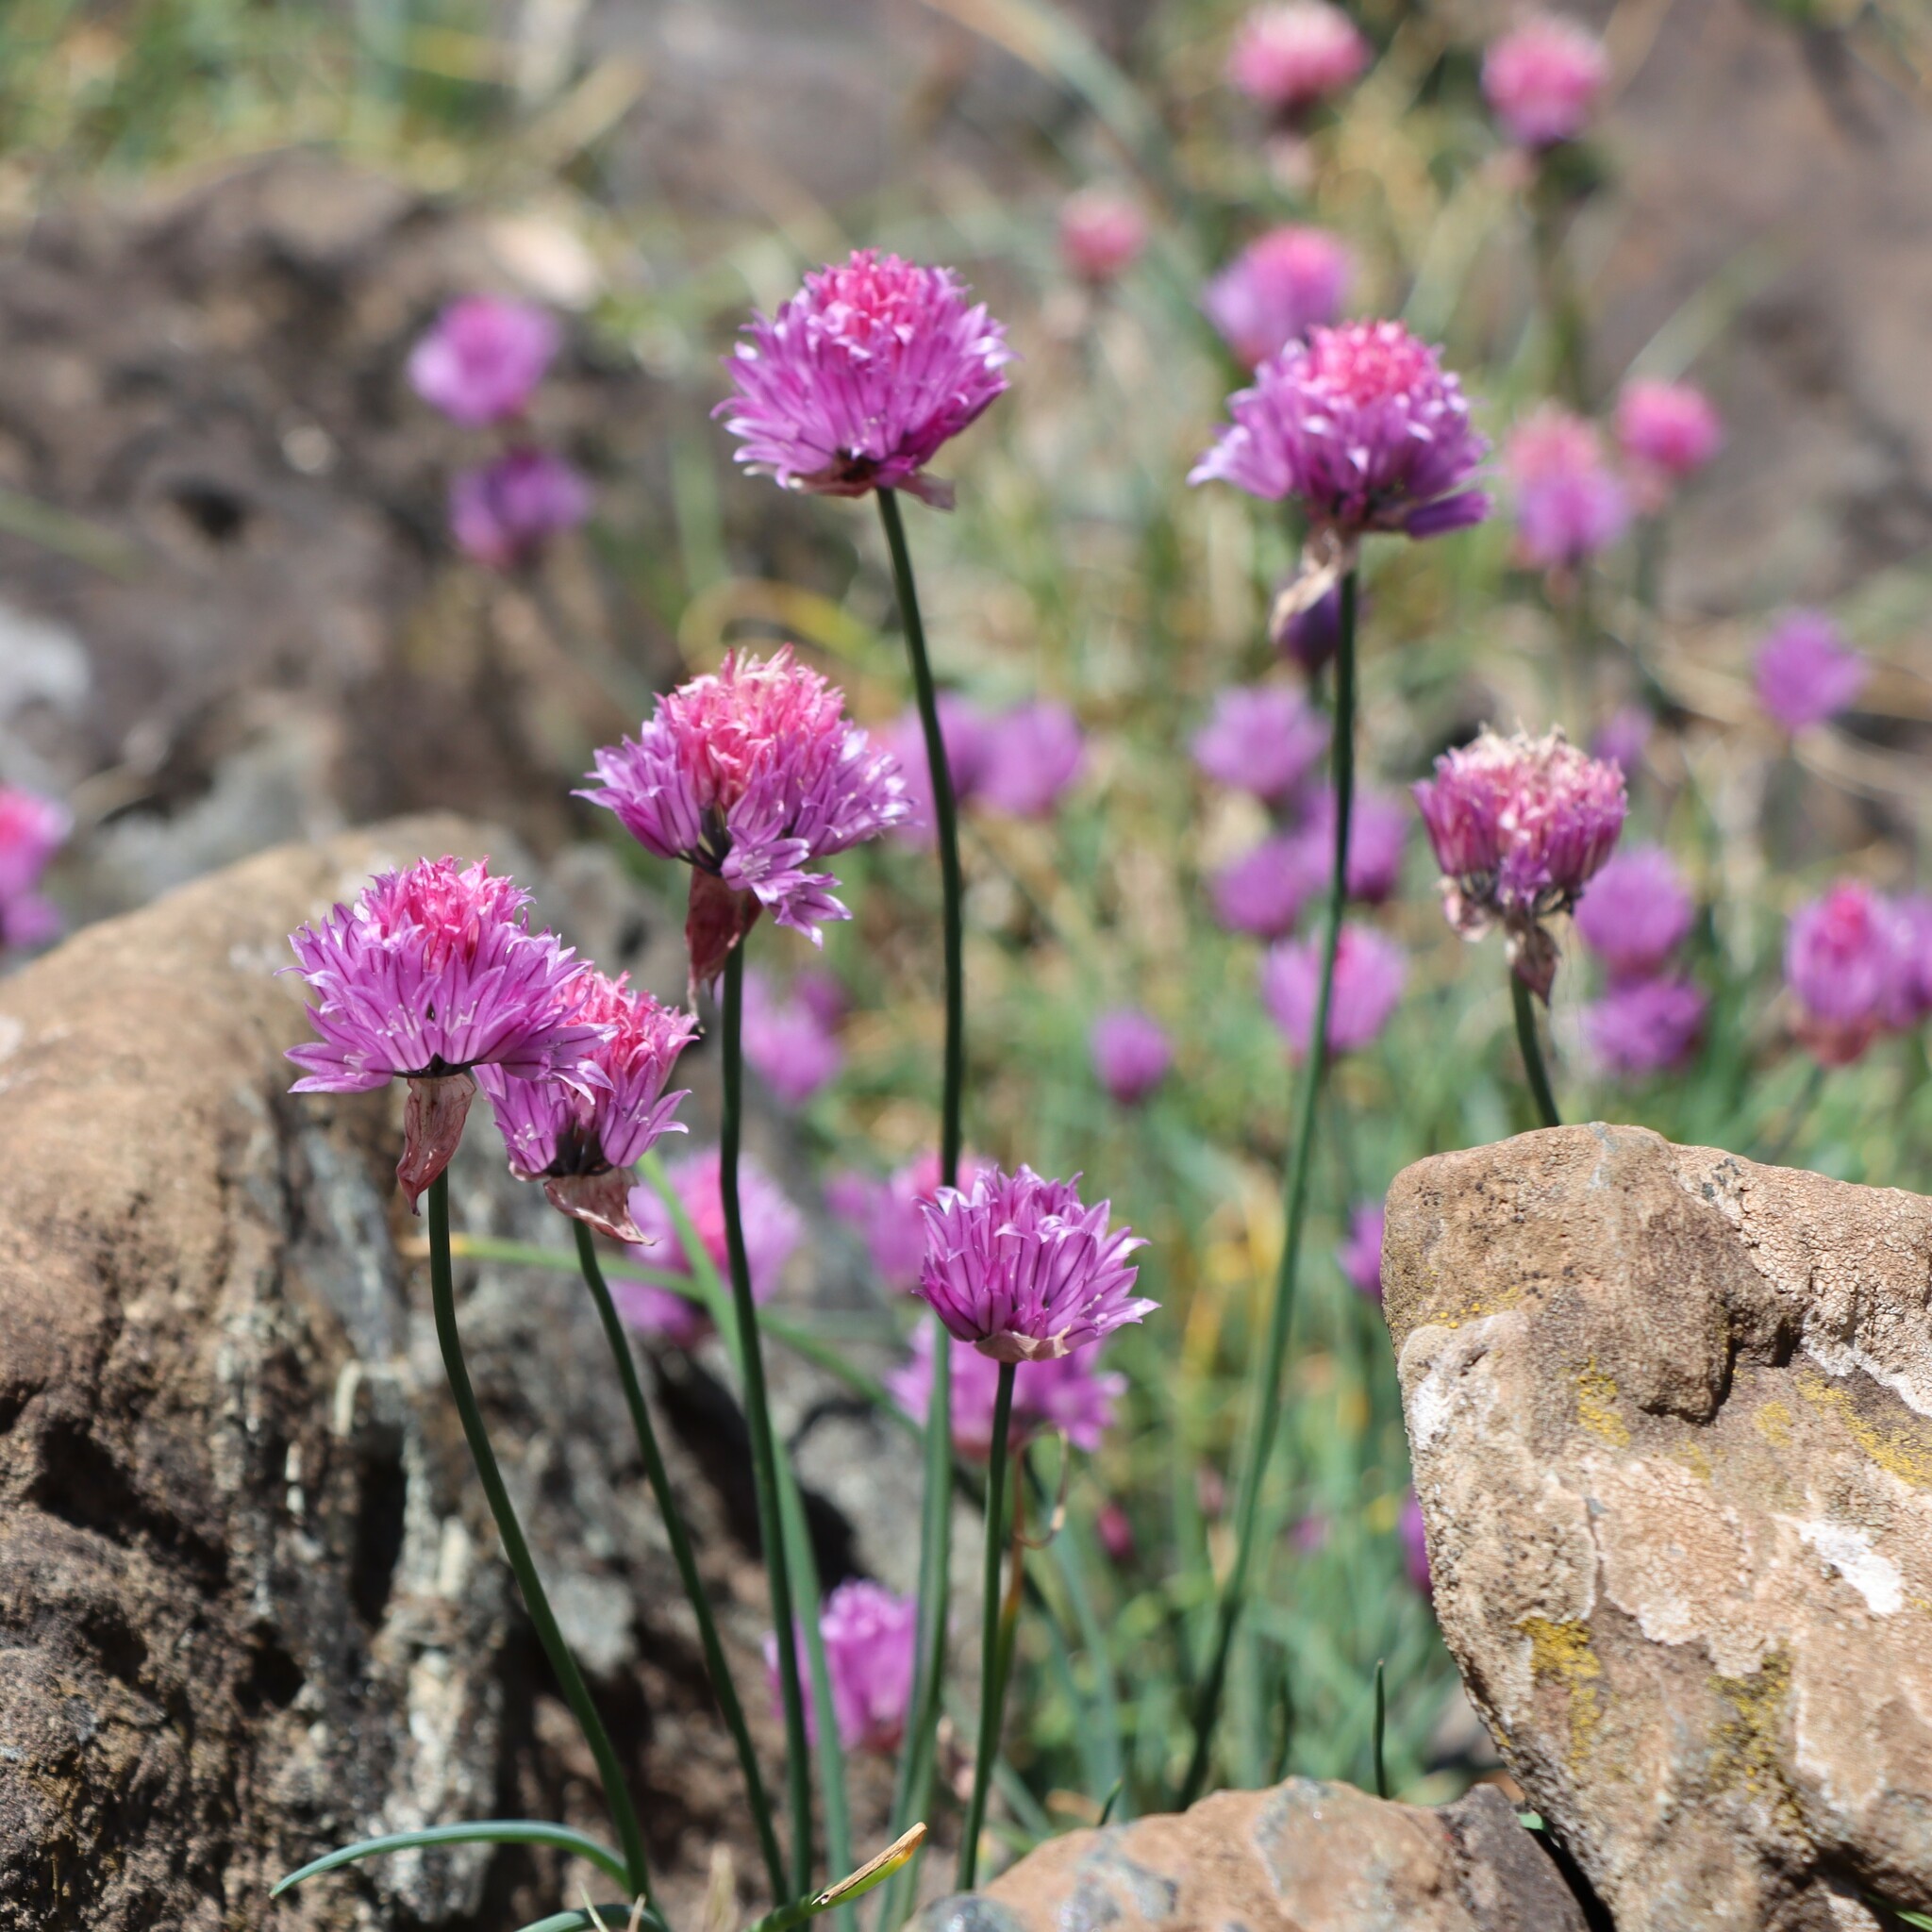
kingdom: Plantae
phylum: Tracheophyta
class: Liliopsida
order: Asparagales
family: Amaryllidaceae
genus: Allium
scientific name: Allium schoenoprasum
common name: Chives
